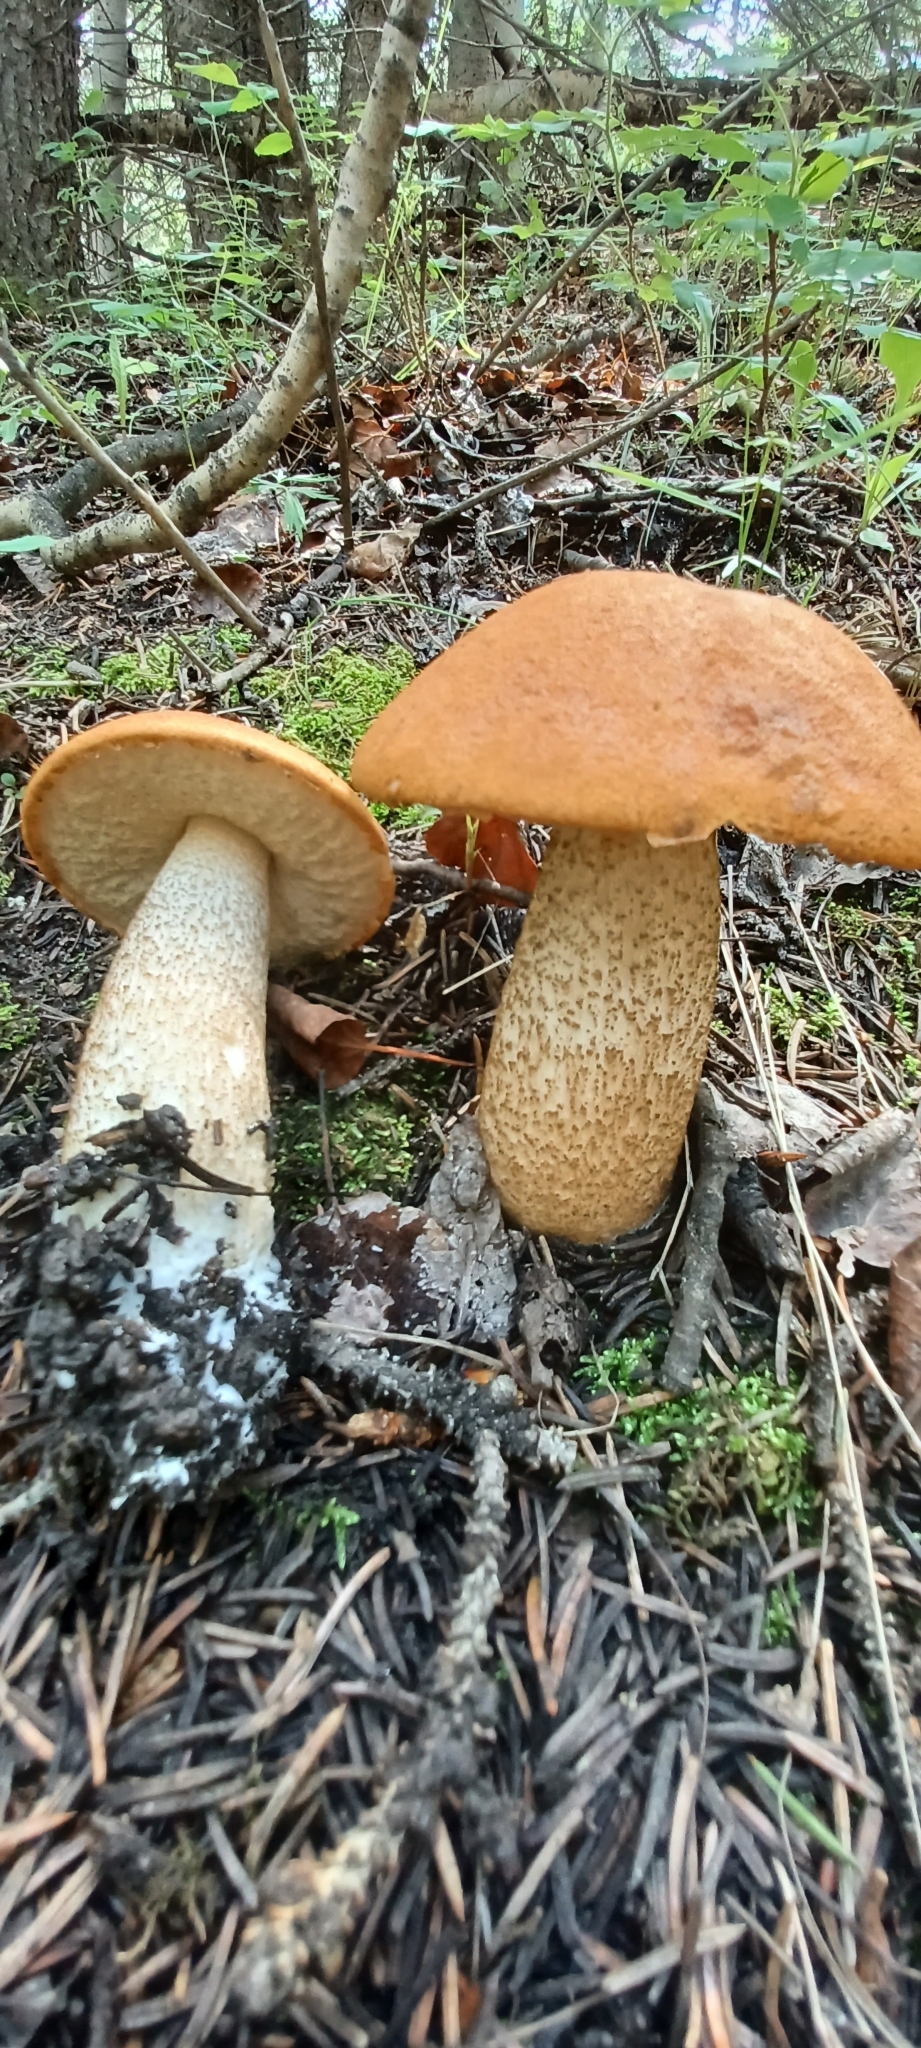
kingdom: Fungi
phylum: Basidiomycota
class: Agaricomycetes
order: Boletales
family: Boletaceae
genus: Leccinum
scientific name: Leccinum aurantiacum
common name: Orange bolete
